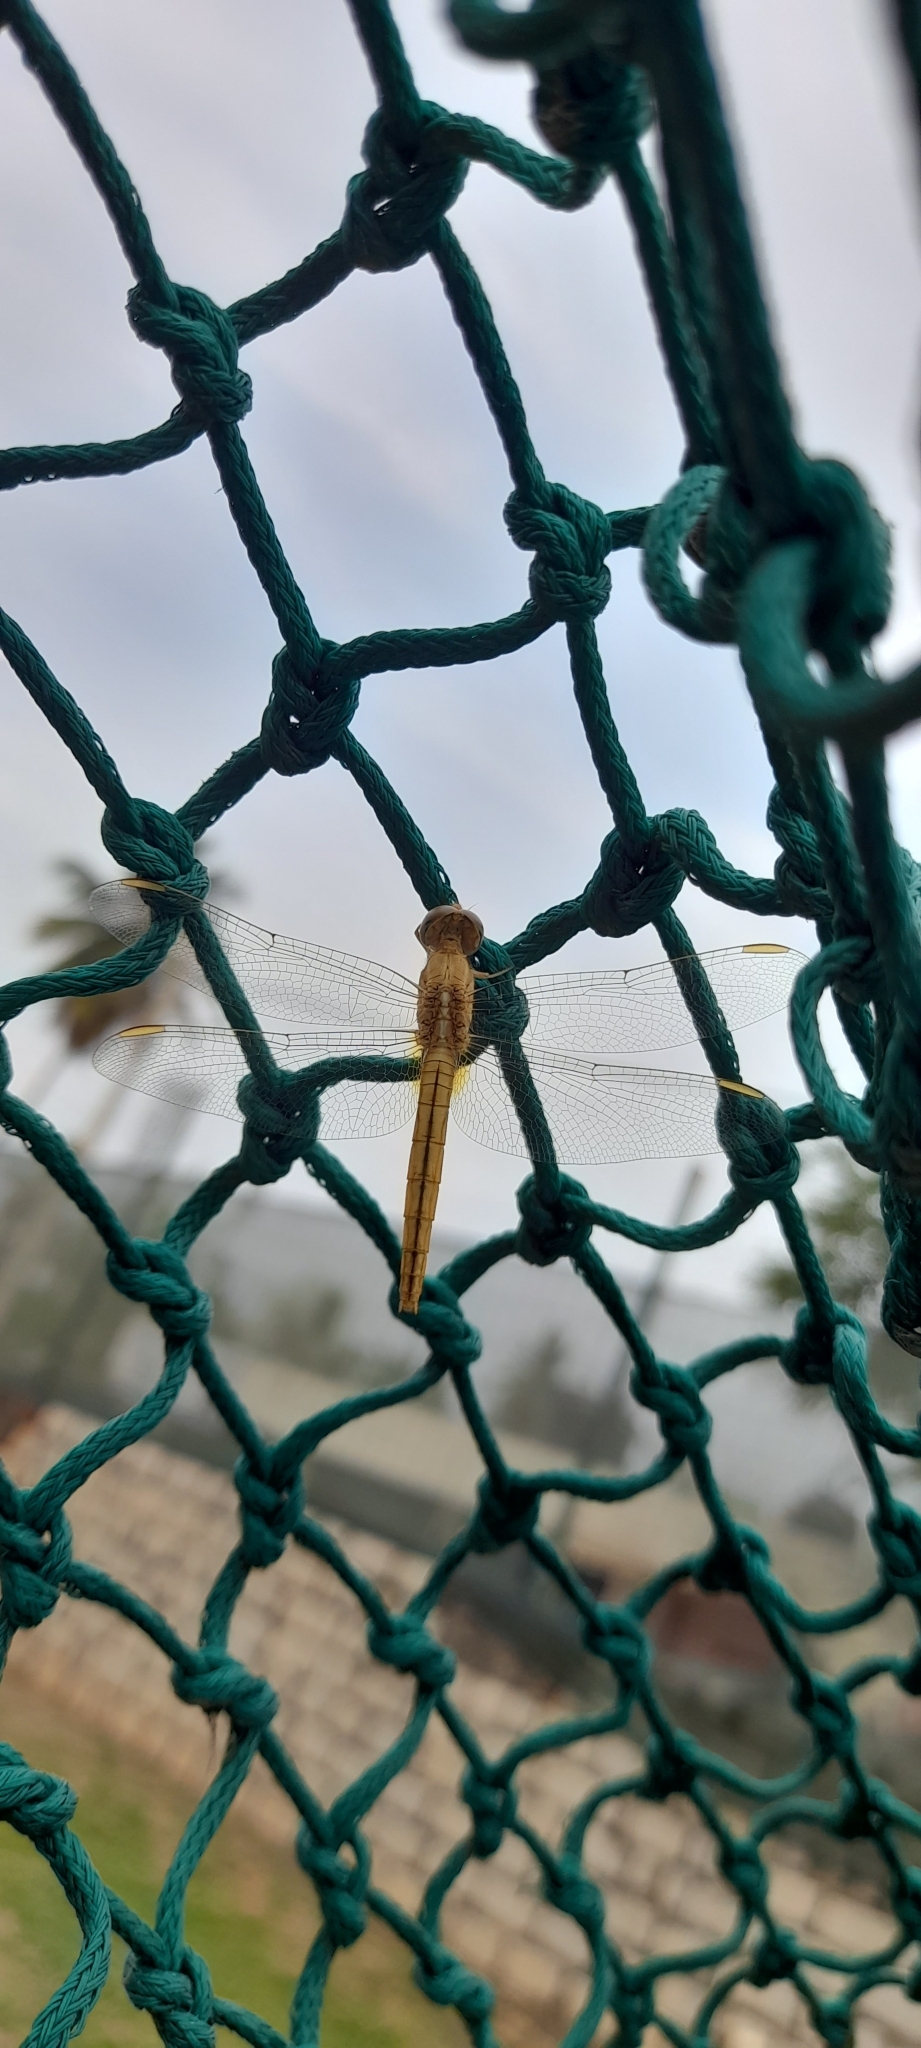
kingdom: Animalia
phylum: Arthropoda
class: Insecta
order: Odonata
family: Libellulidae
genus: Crocothemis
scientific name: Crocothemis servilia
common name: Scarlet skimmer
